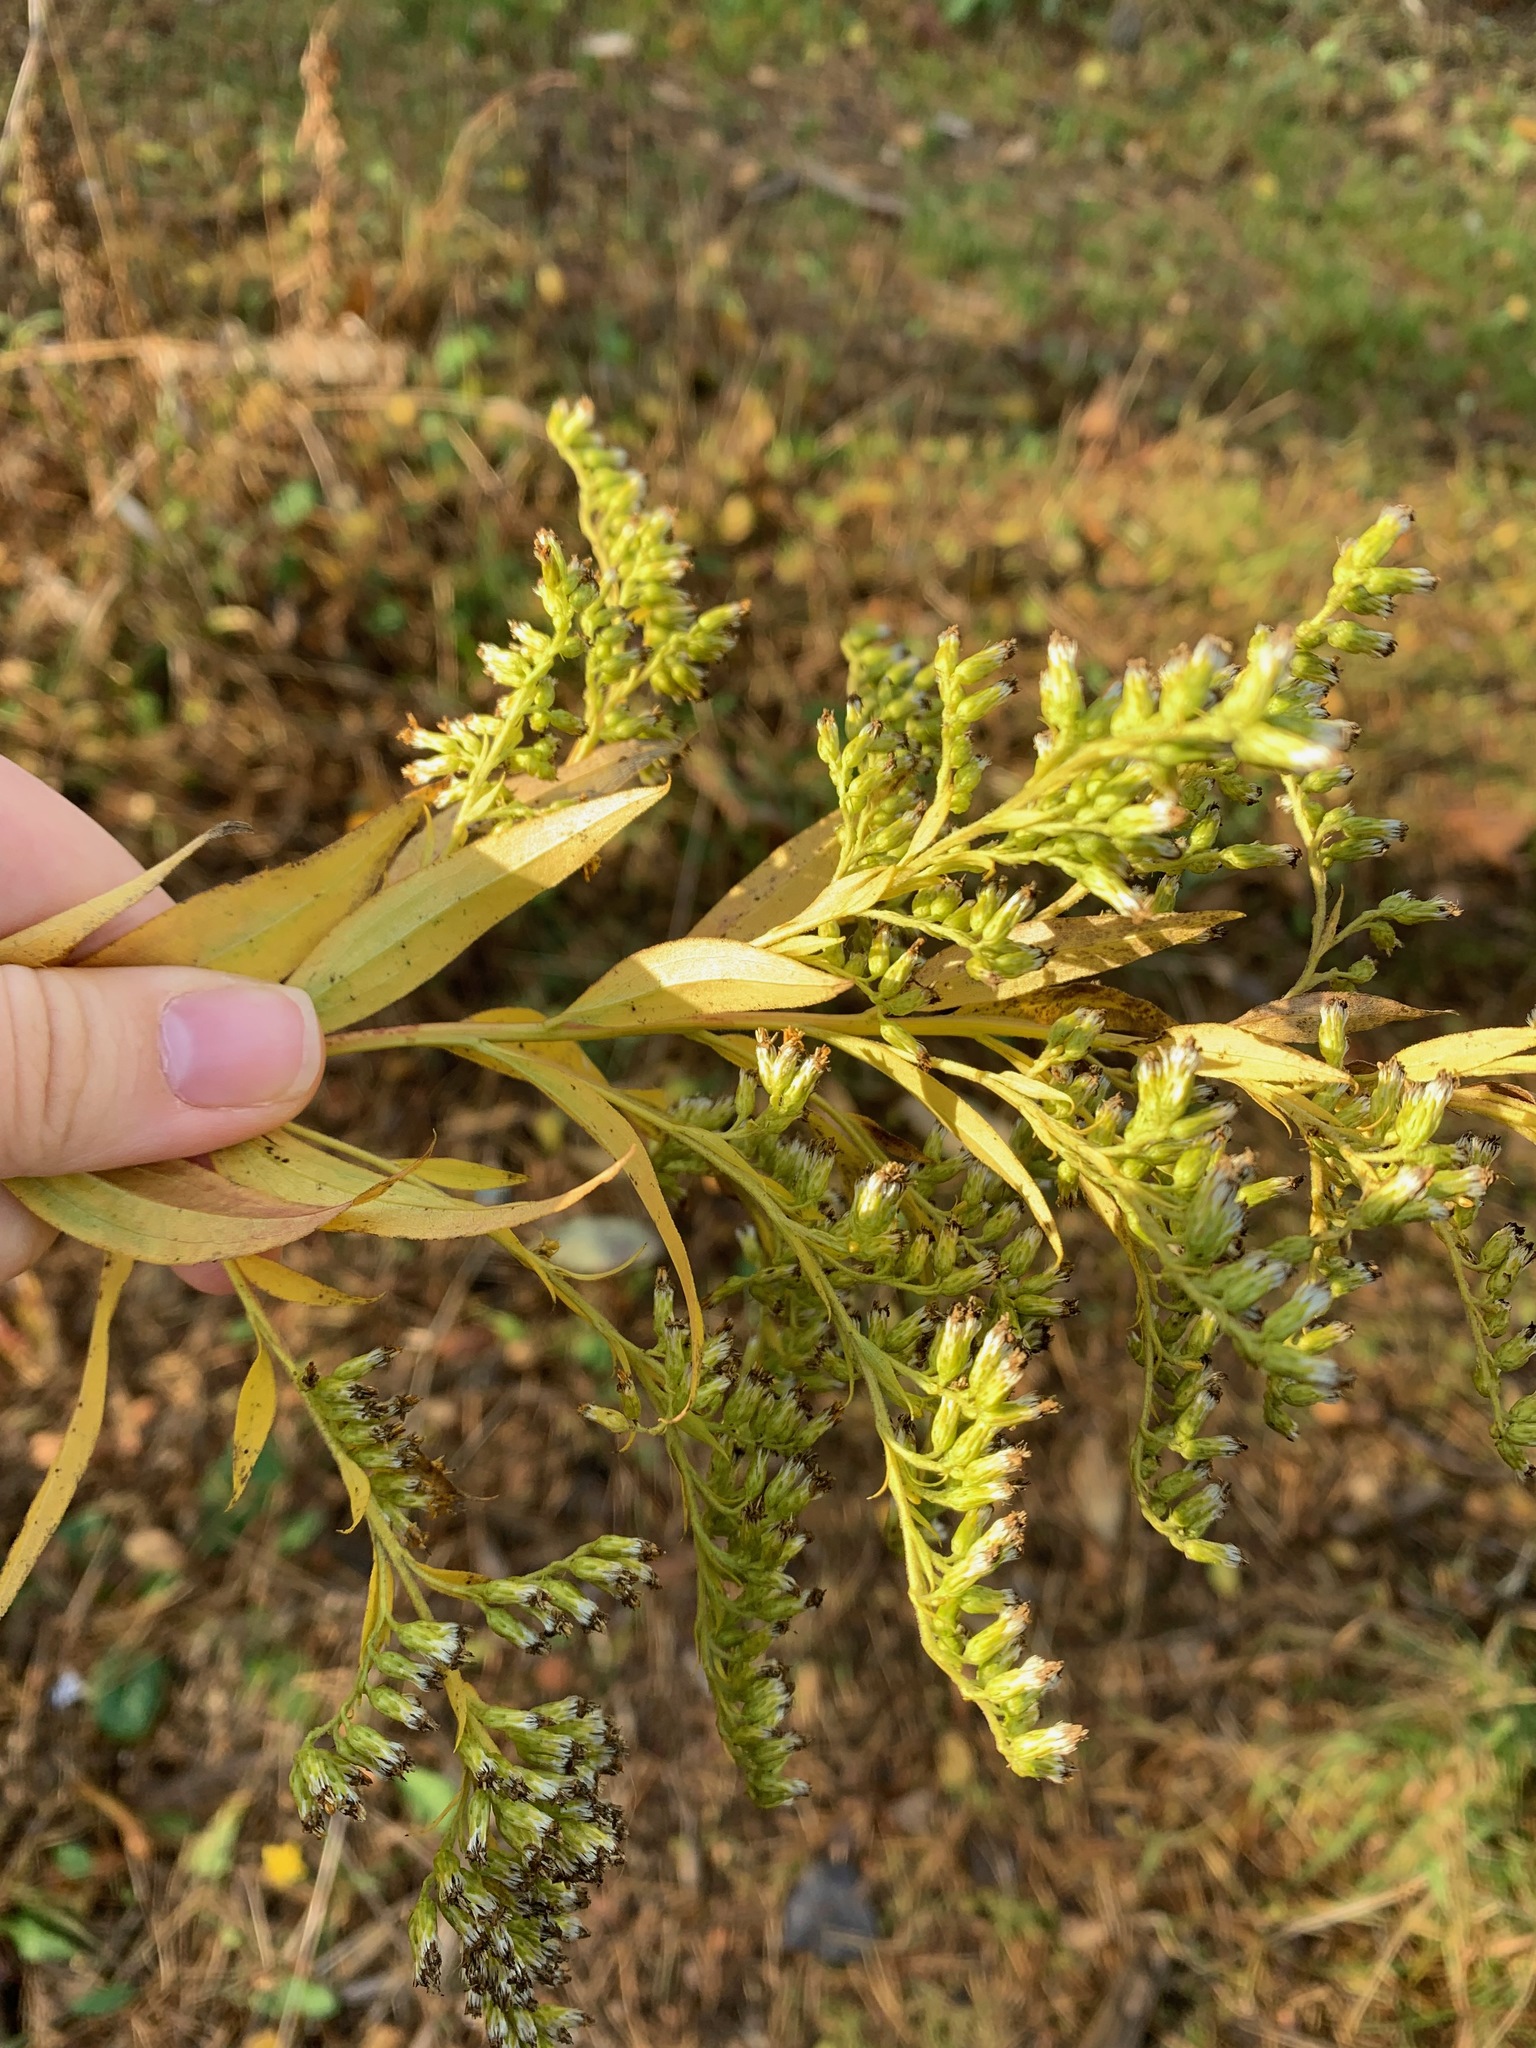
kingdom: Plantae
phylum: Tracheophyta
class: Magnoliopsida
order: Asterales
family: Asteraceae
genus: Solidago
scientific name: Solidago gigantea
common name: Giant goldenrod
